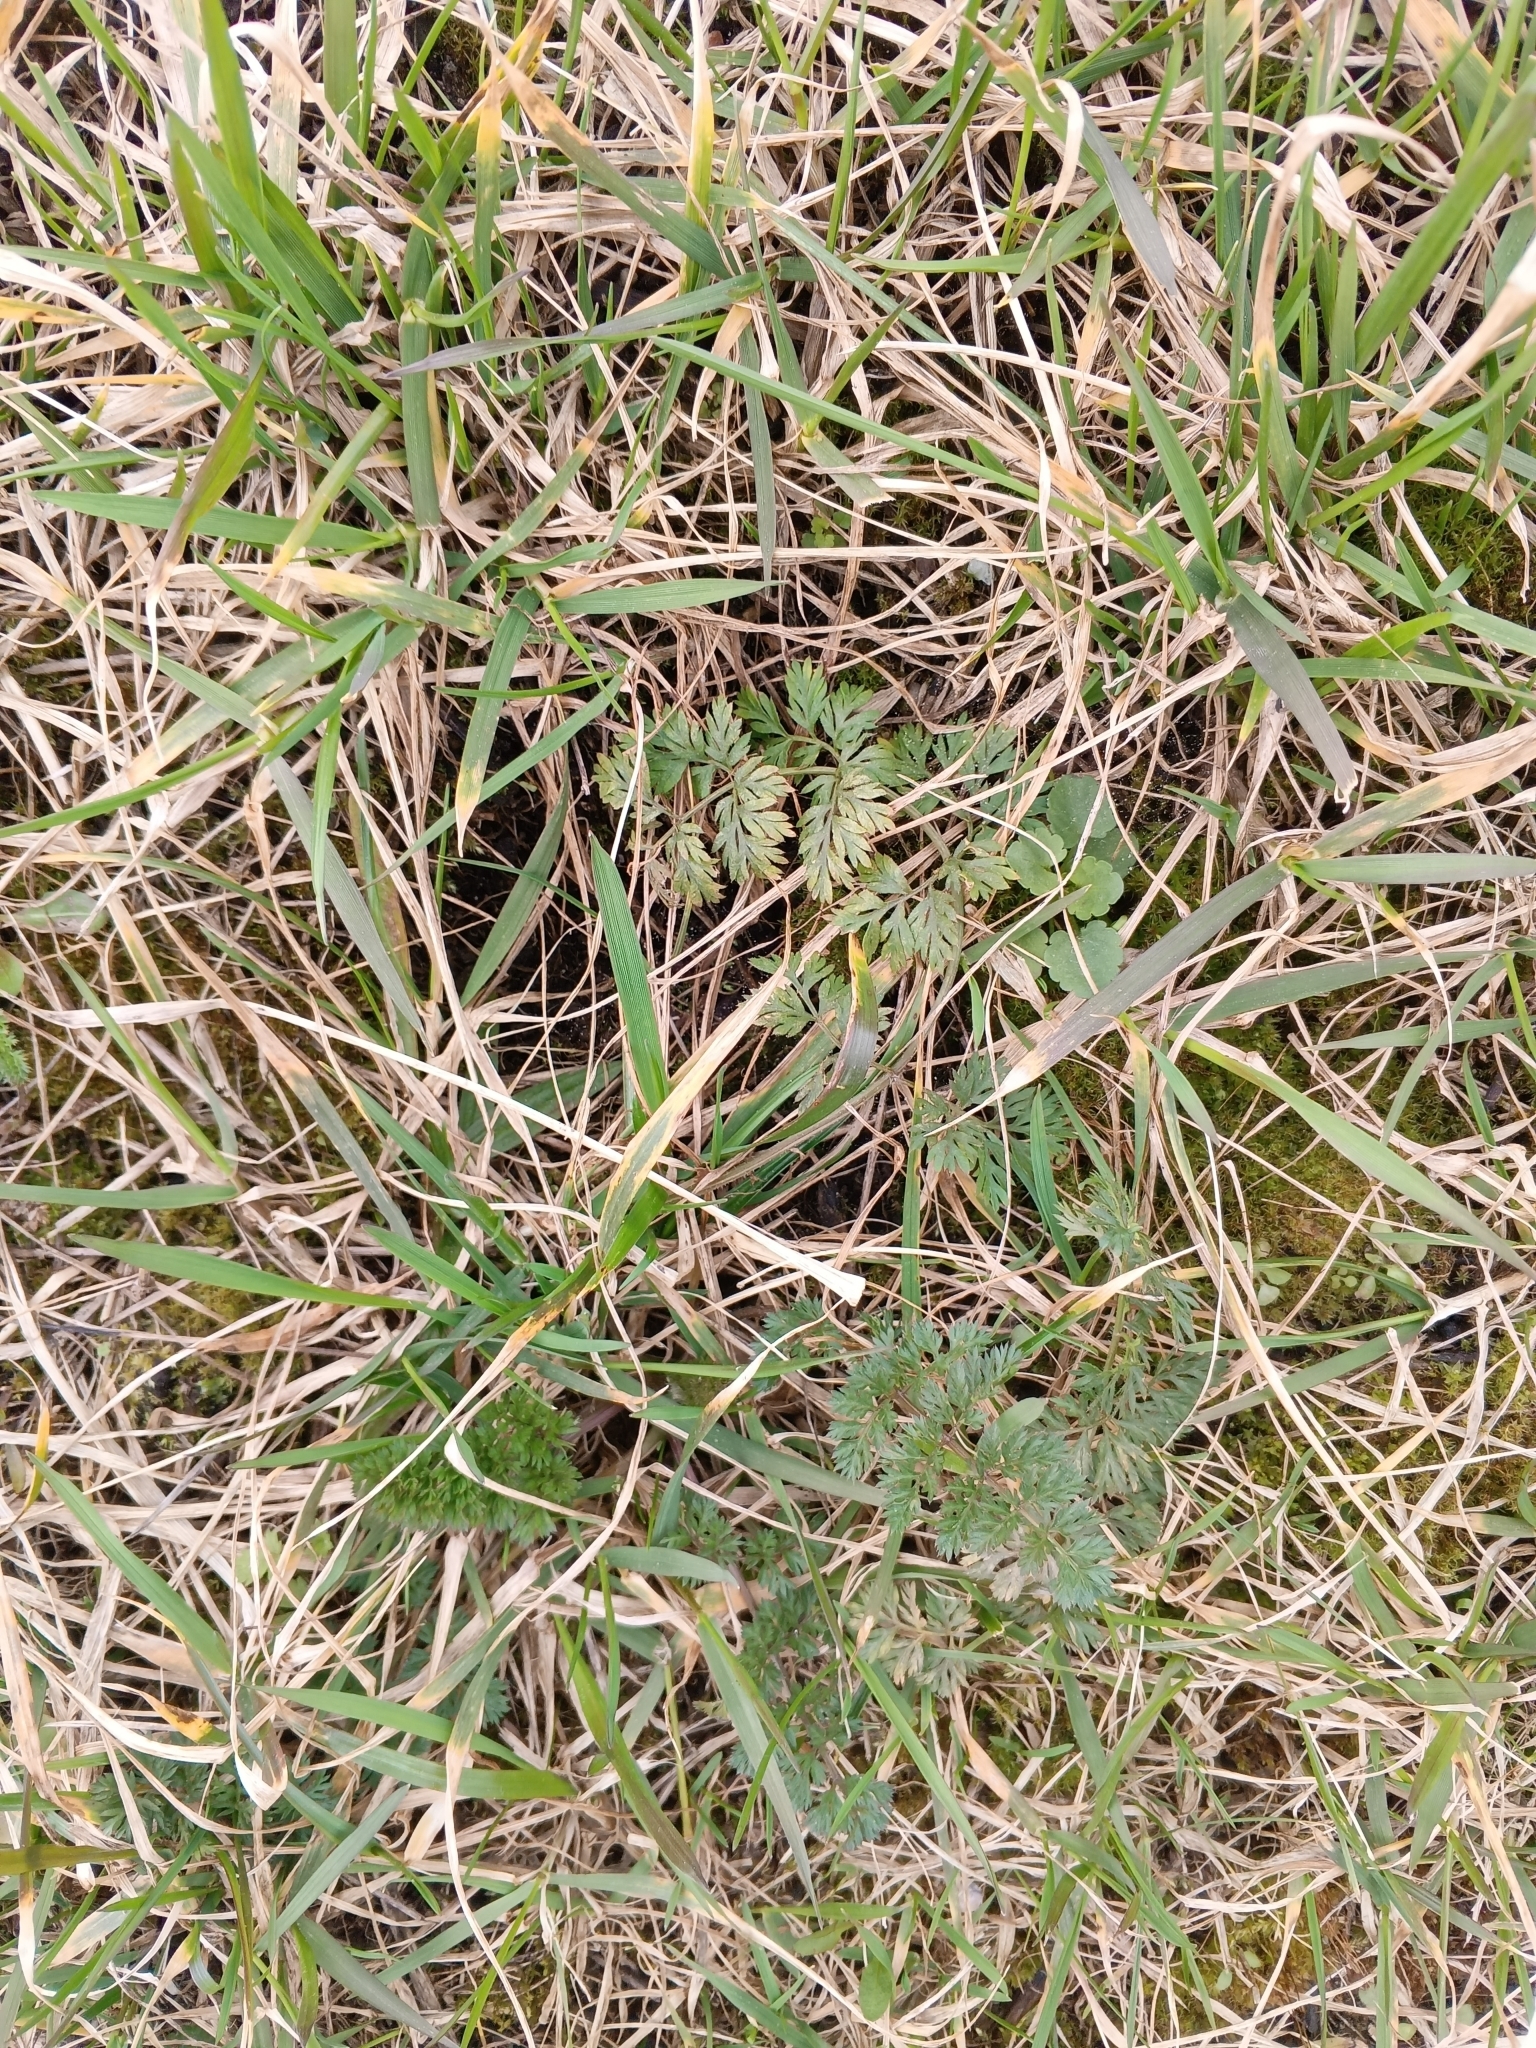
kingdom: Plantae
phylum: Tracheophyta
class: Magnoliopsida
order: Apiales
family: Apiaceae
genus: Daucus
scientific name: Daucus carota
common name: Wild carrot
